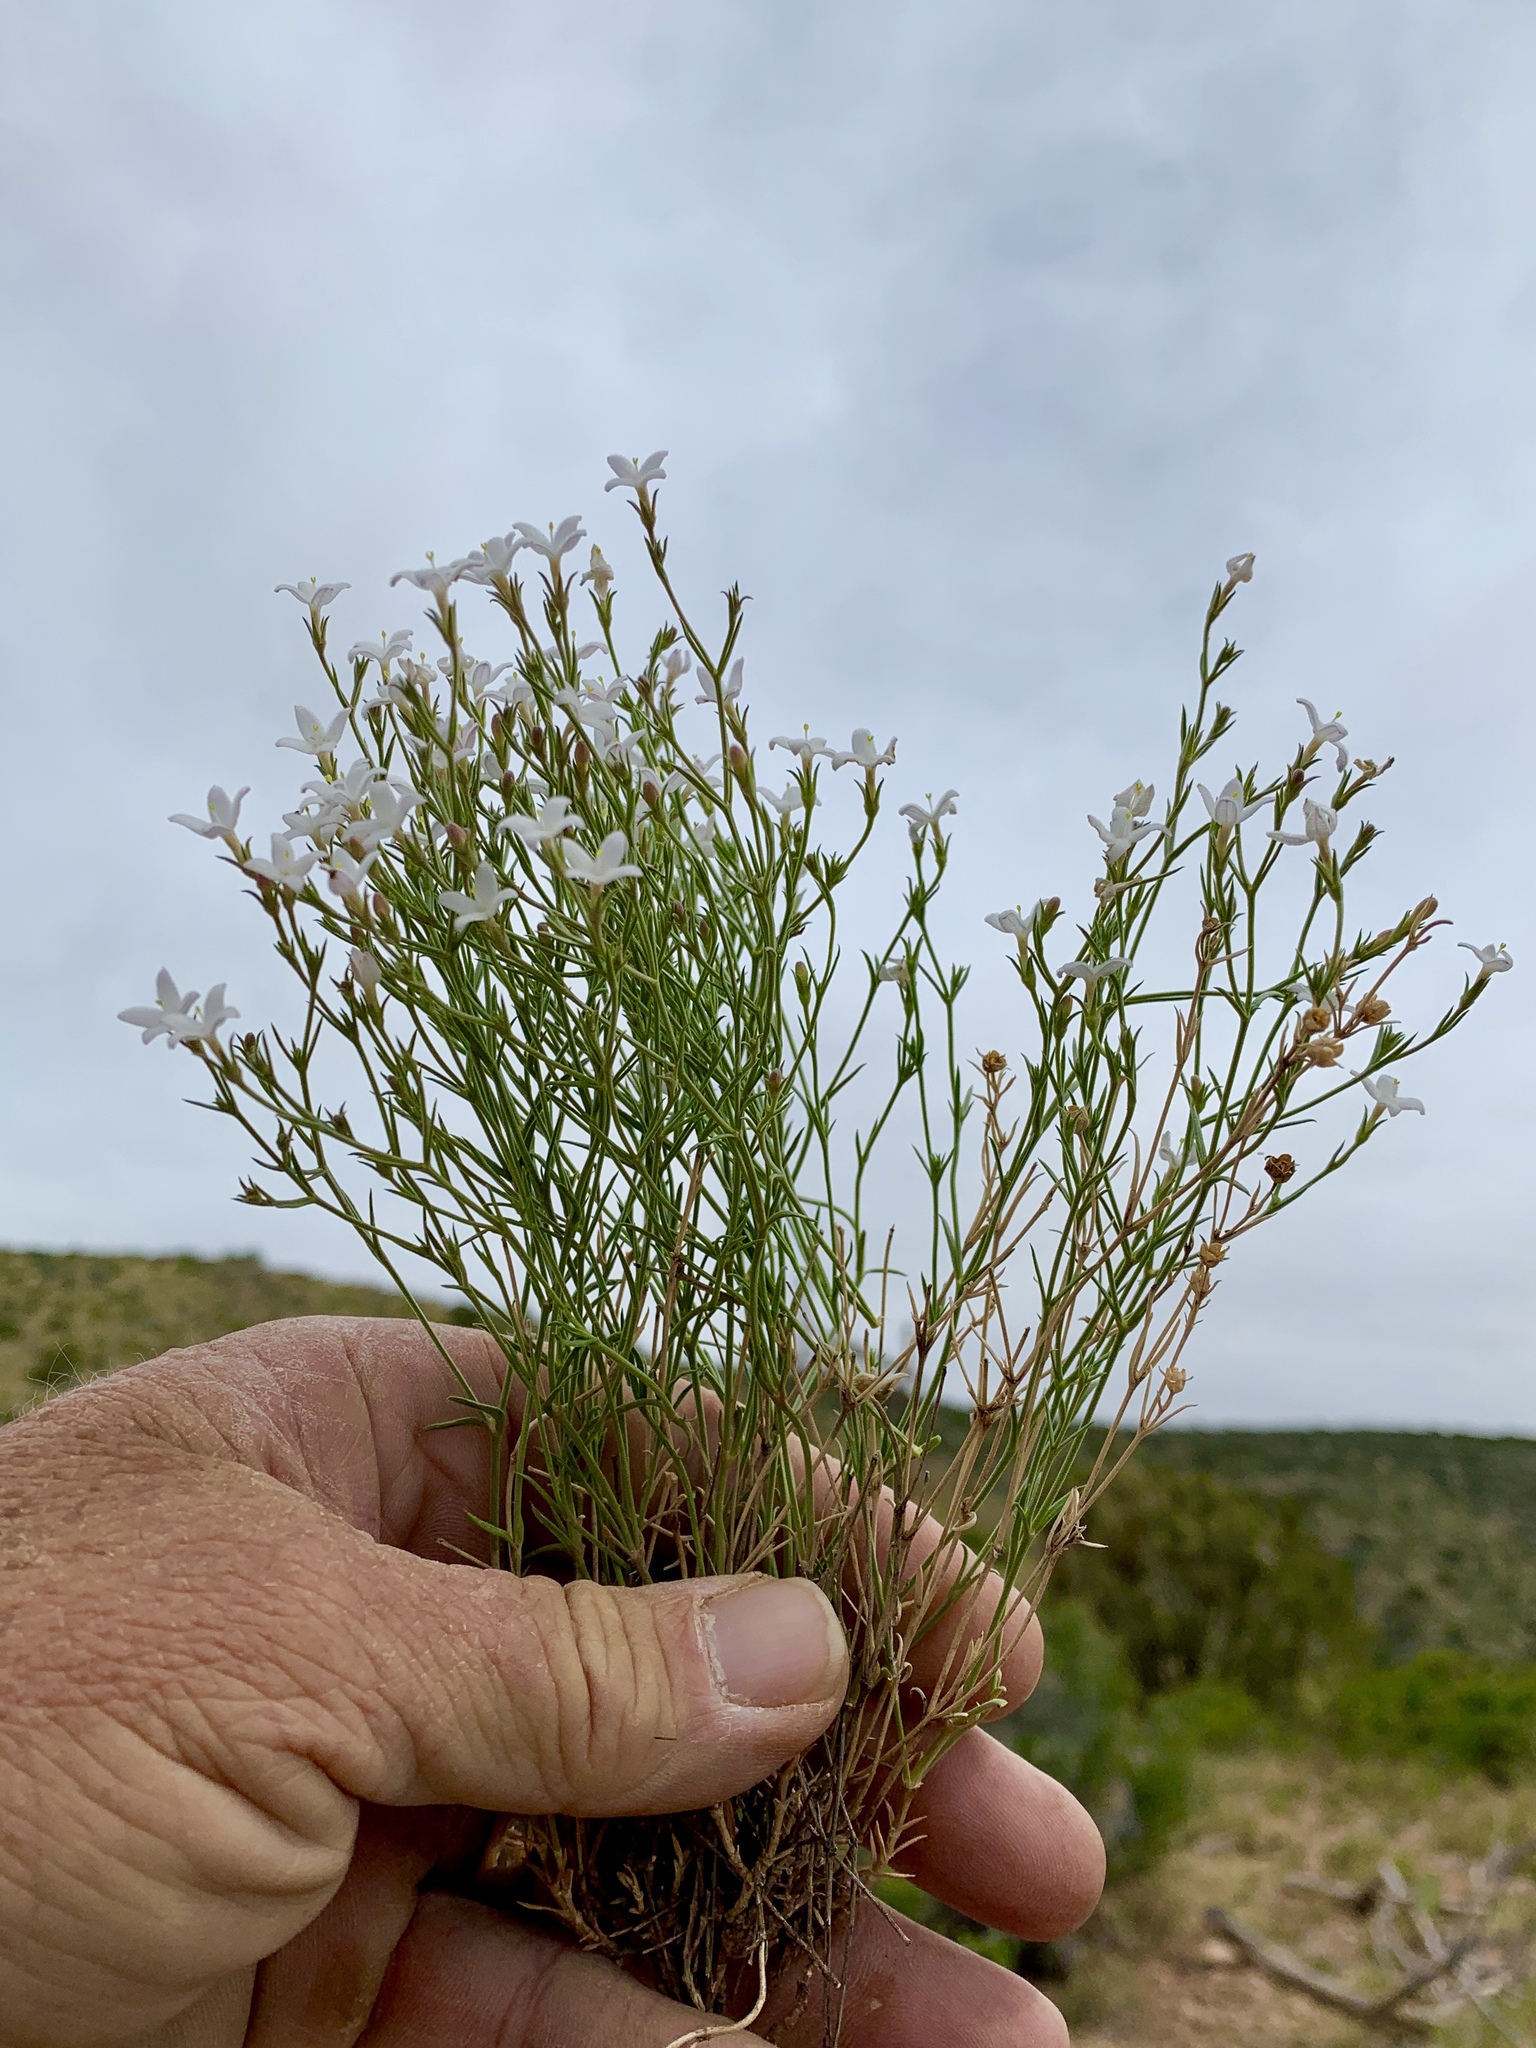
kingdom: Plantae
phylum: Tracheophyta
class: Magnoliopsida
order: Gentianales
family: Rubiaceae
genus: Houstonia
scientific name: Houstonia acerosa
